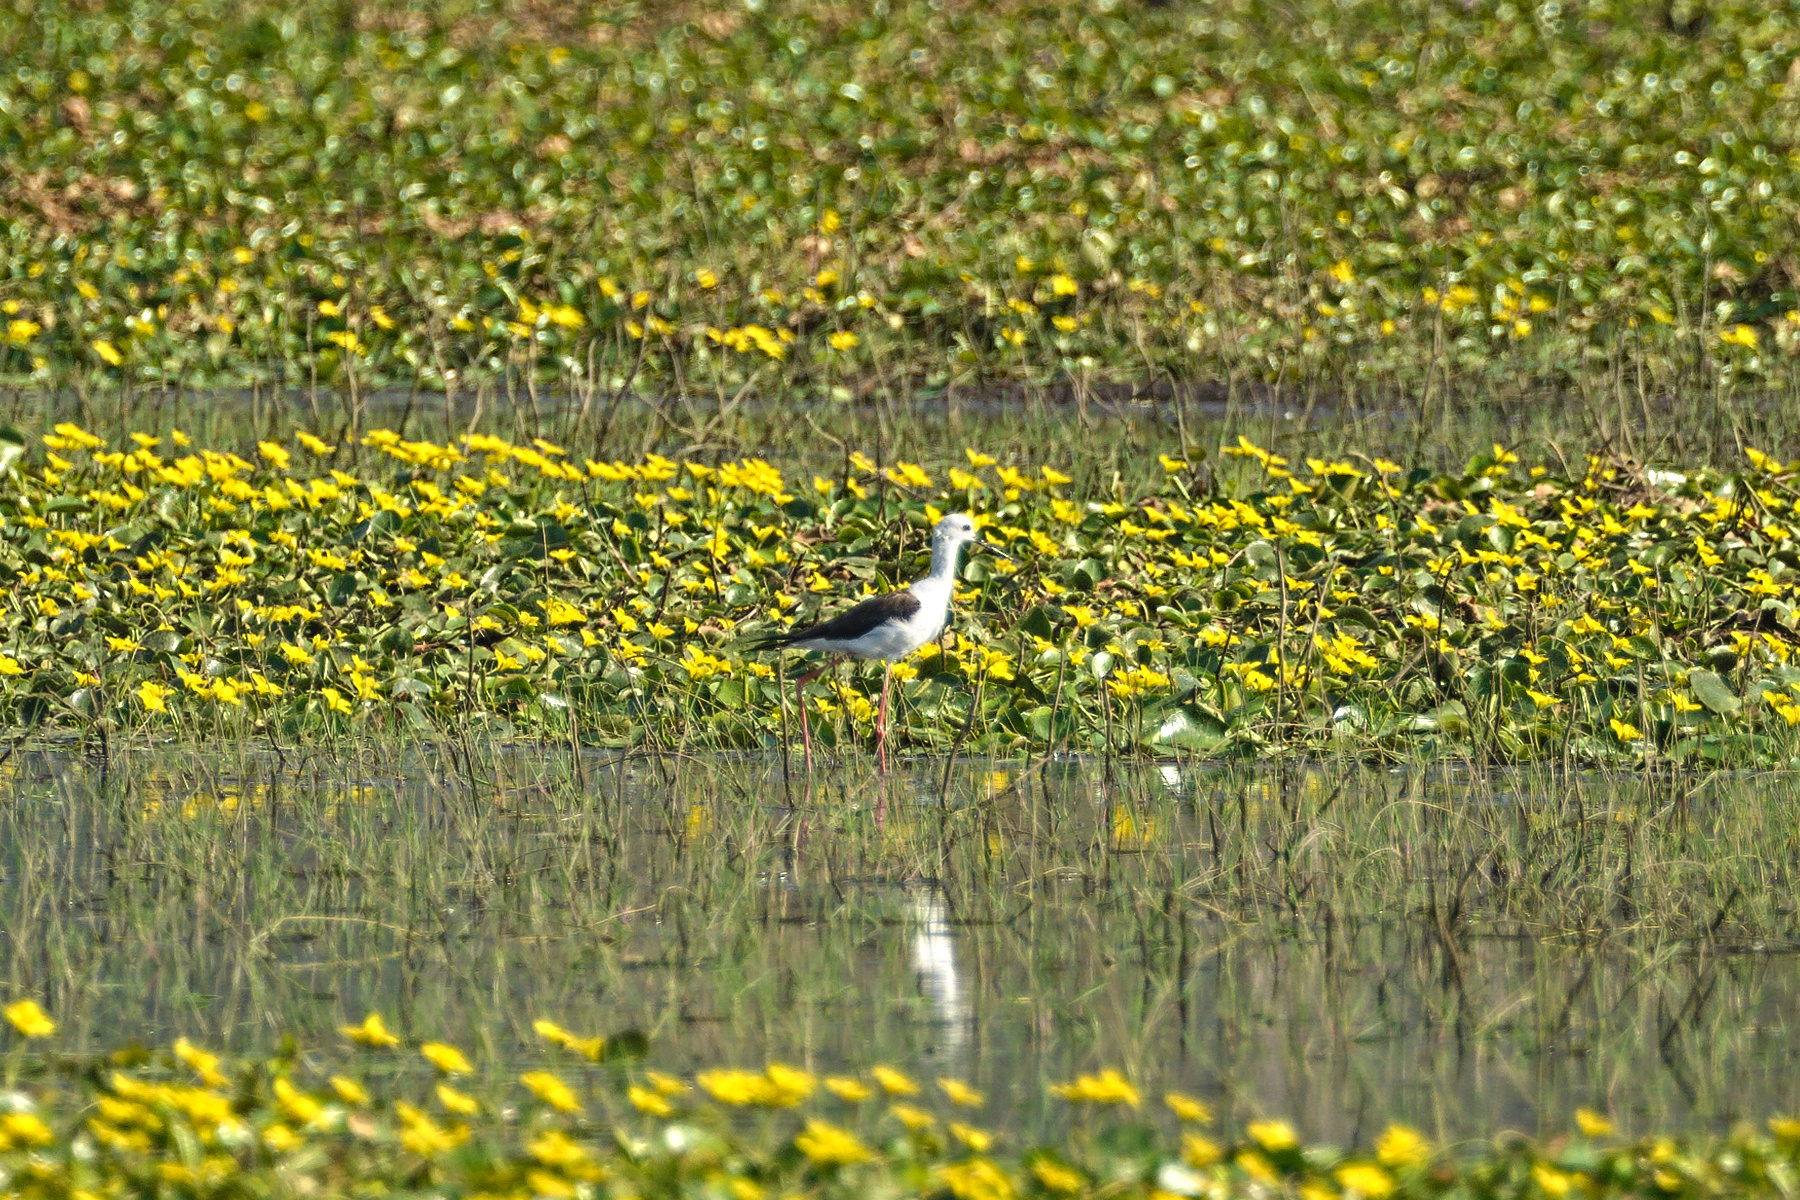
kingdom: Animalia
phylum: Chordata
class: Aves
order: Charadriiformes
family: Recurvirostridae
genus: Himantopus
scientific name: Himantopus himantopus
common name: Black-winged stilt
